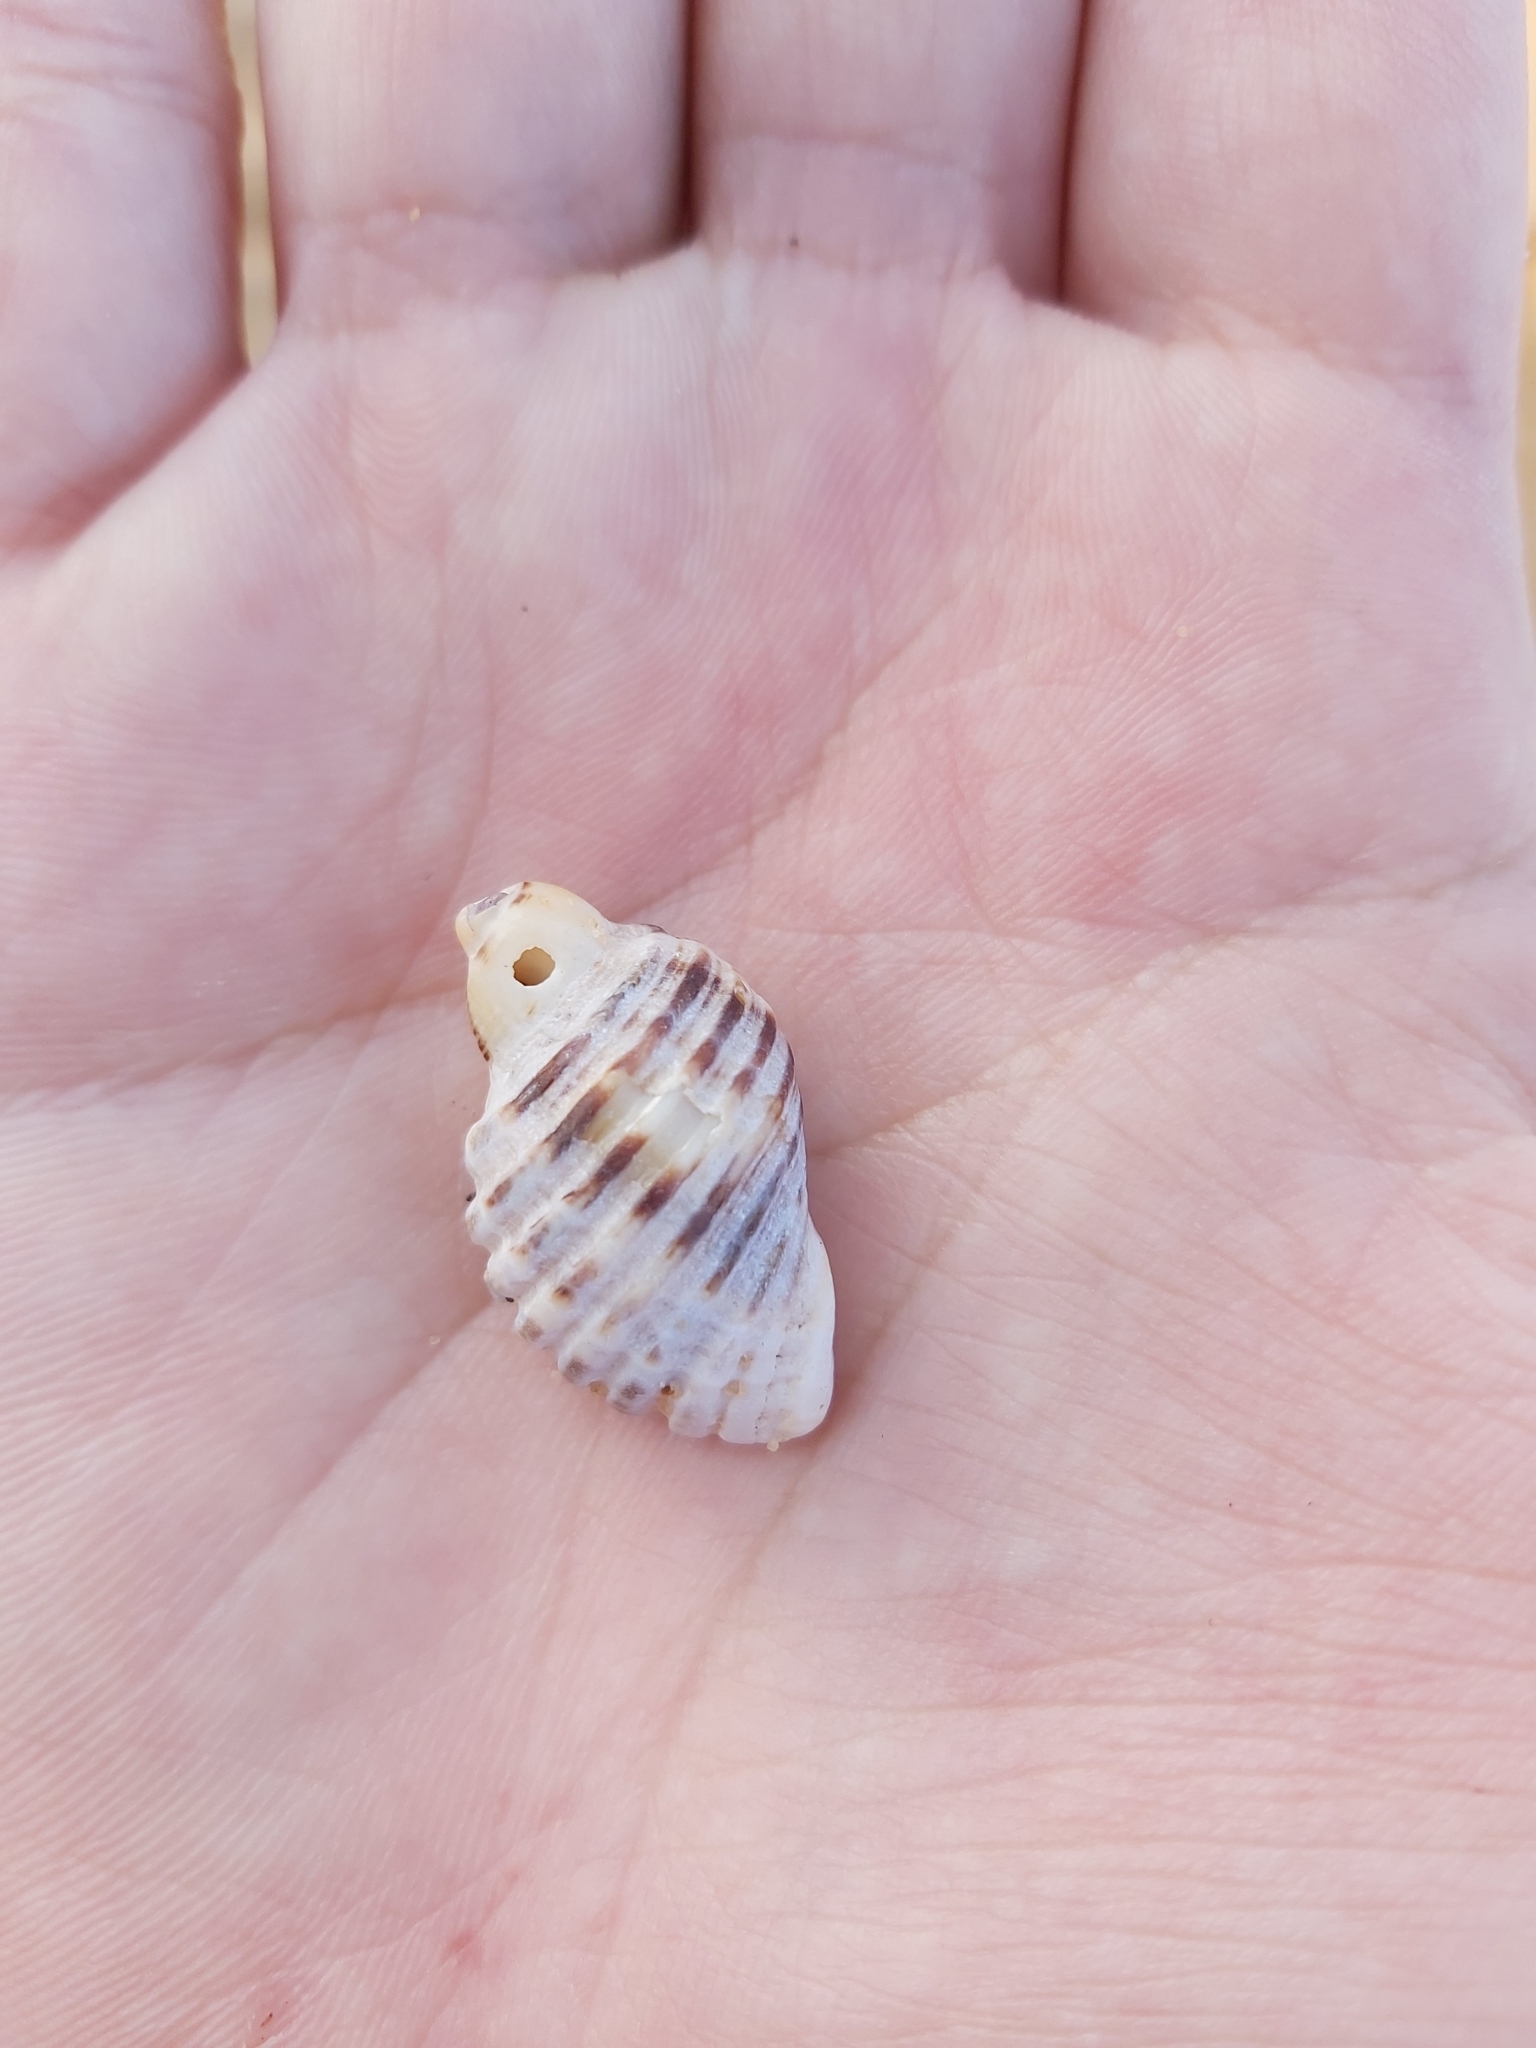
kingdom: Animalia
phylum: Mollusca
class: Gastropoda
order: Neogastropoda
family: Muricidae
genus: Dicathais
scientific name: Dicathais orbita
